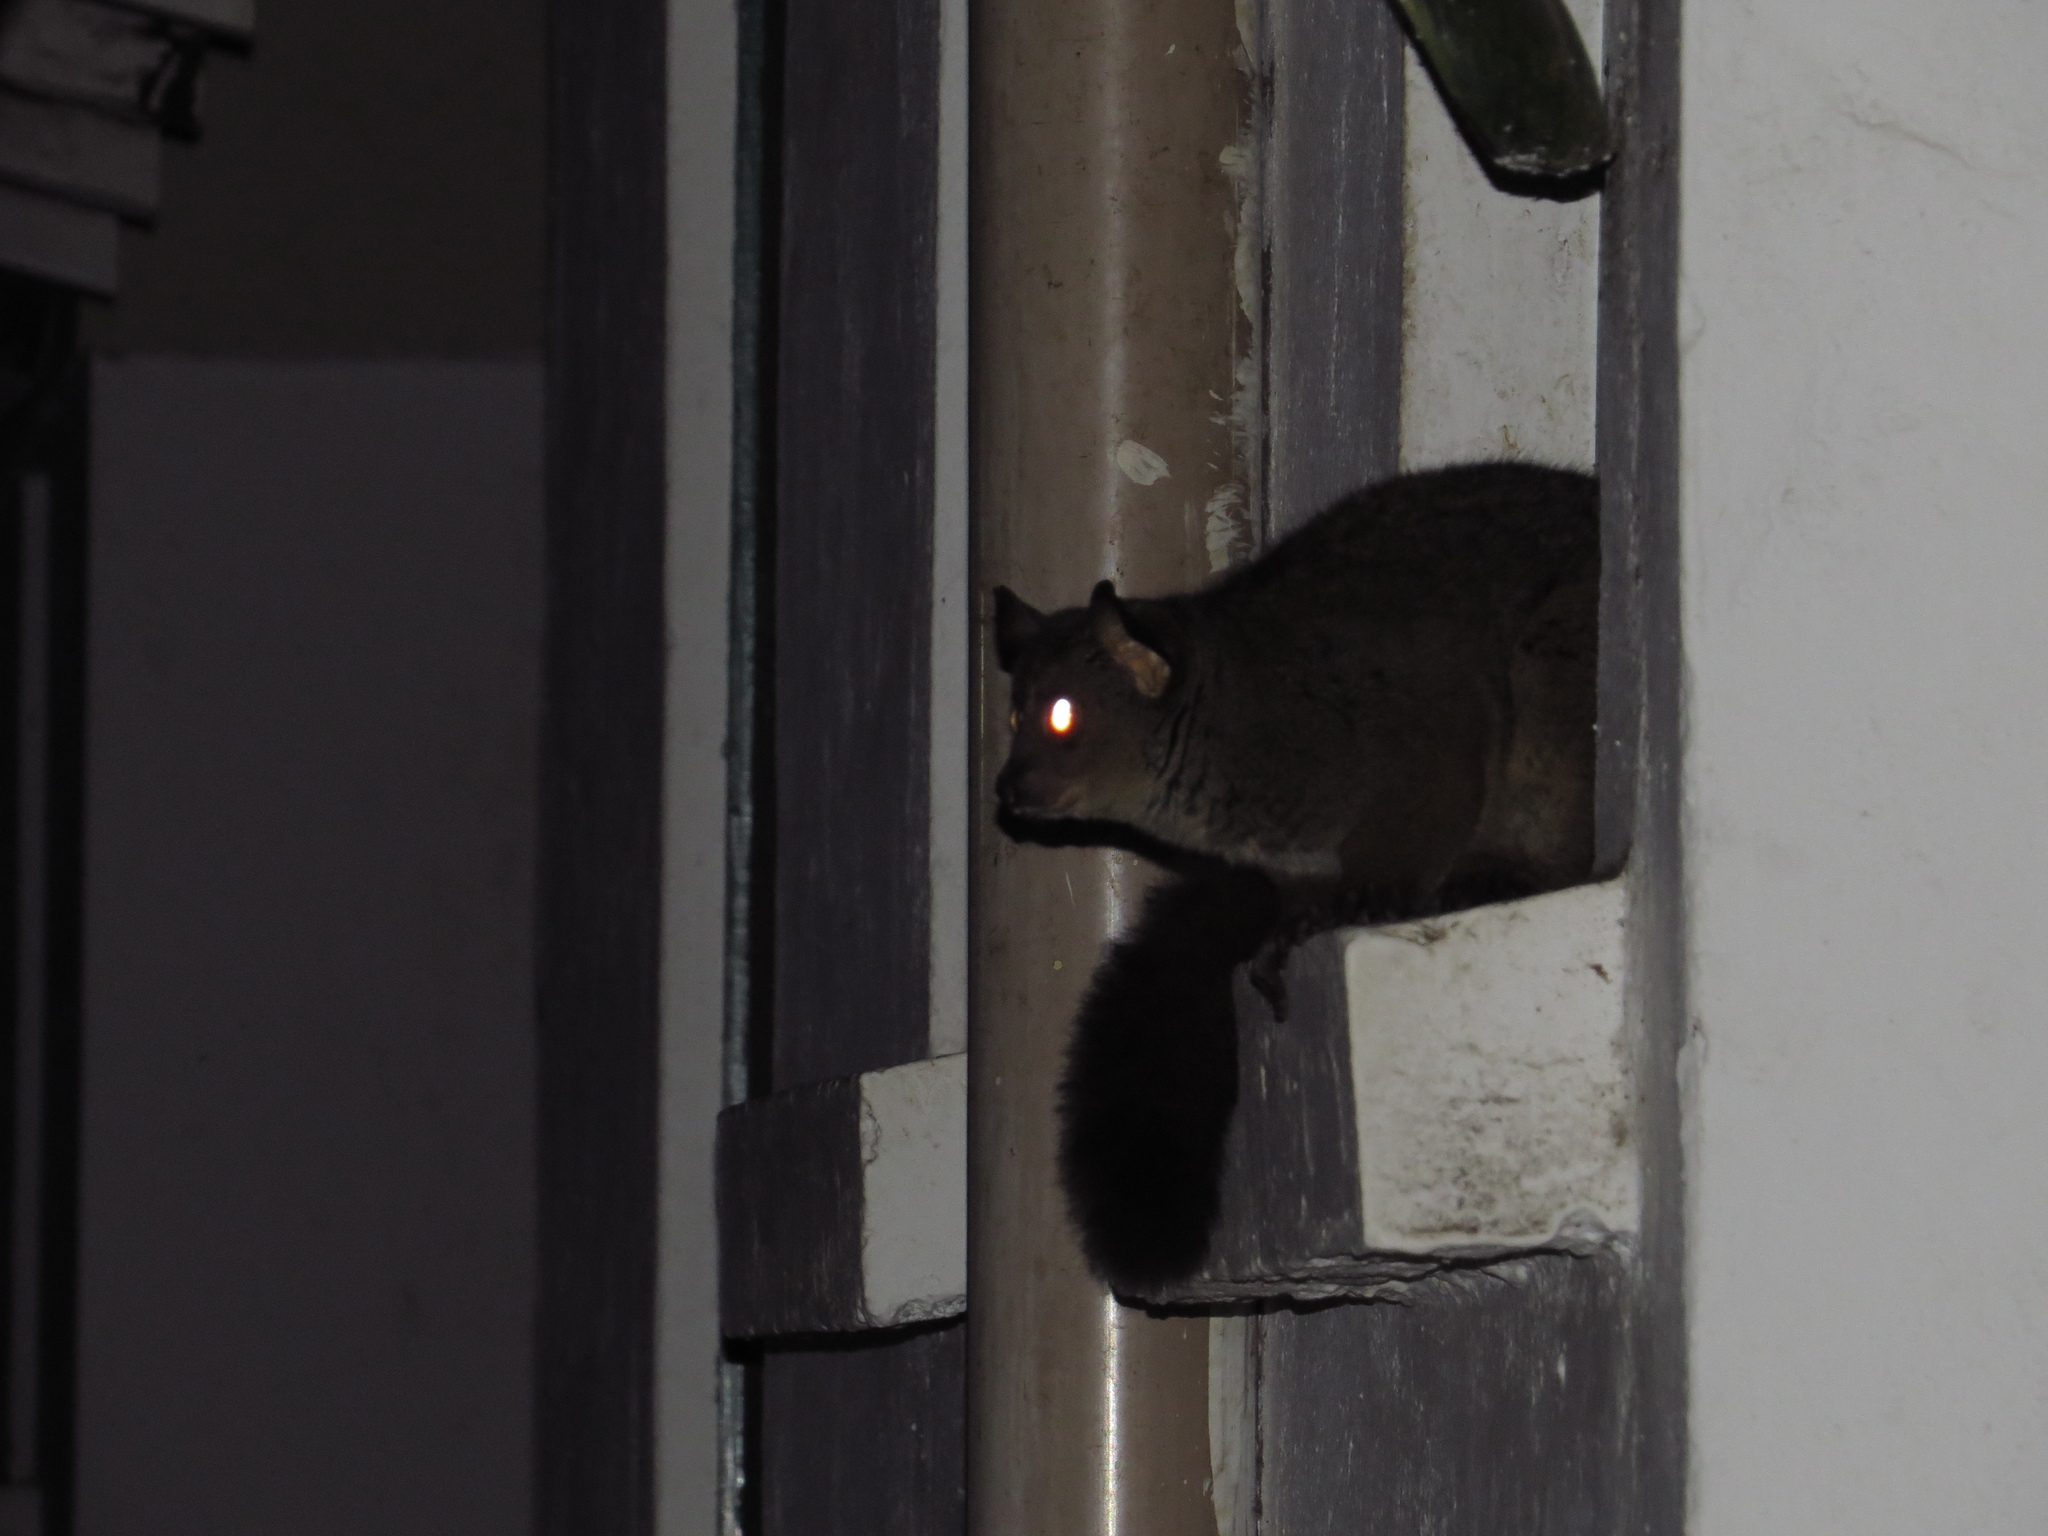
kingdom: Animalia
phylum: Chordata
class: Mammalia
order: Primates
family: Galagidae
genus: Otolemur
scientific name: Otolemur garnettii
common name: Northern greater galago
